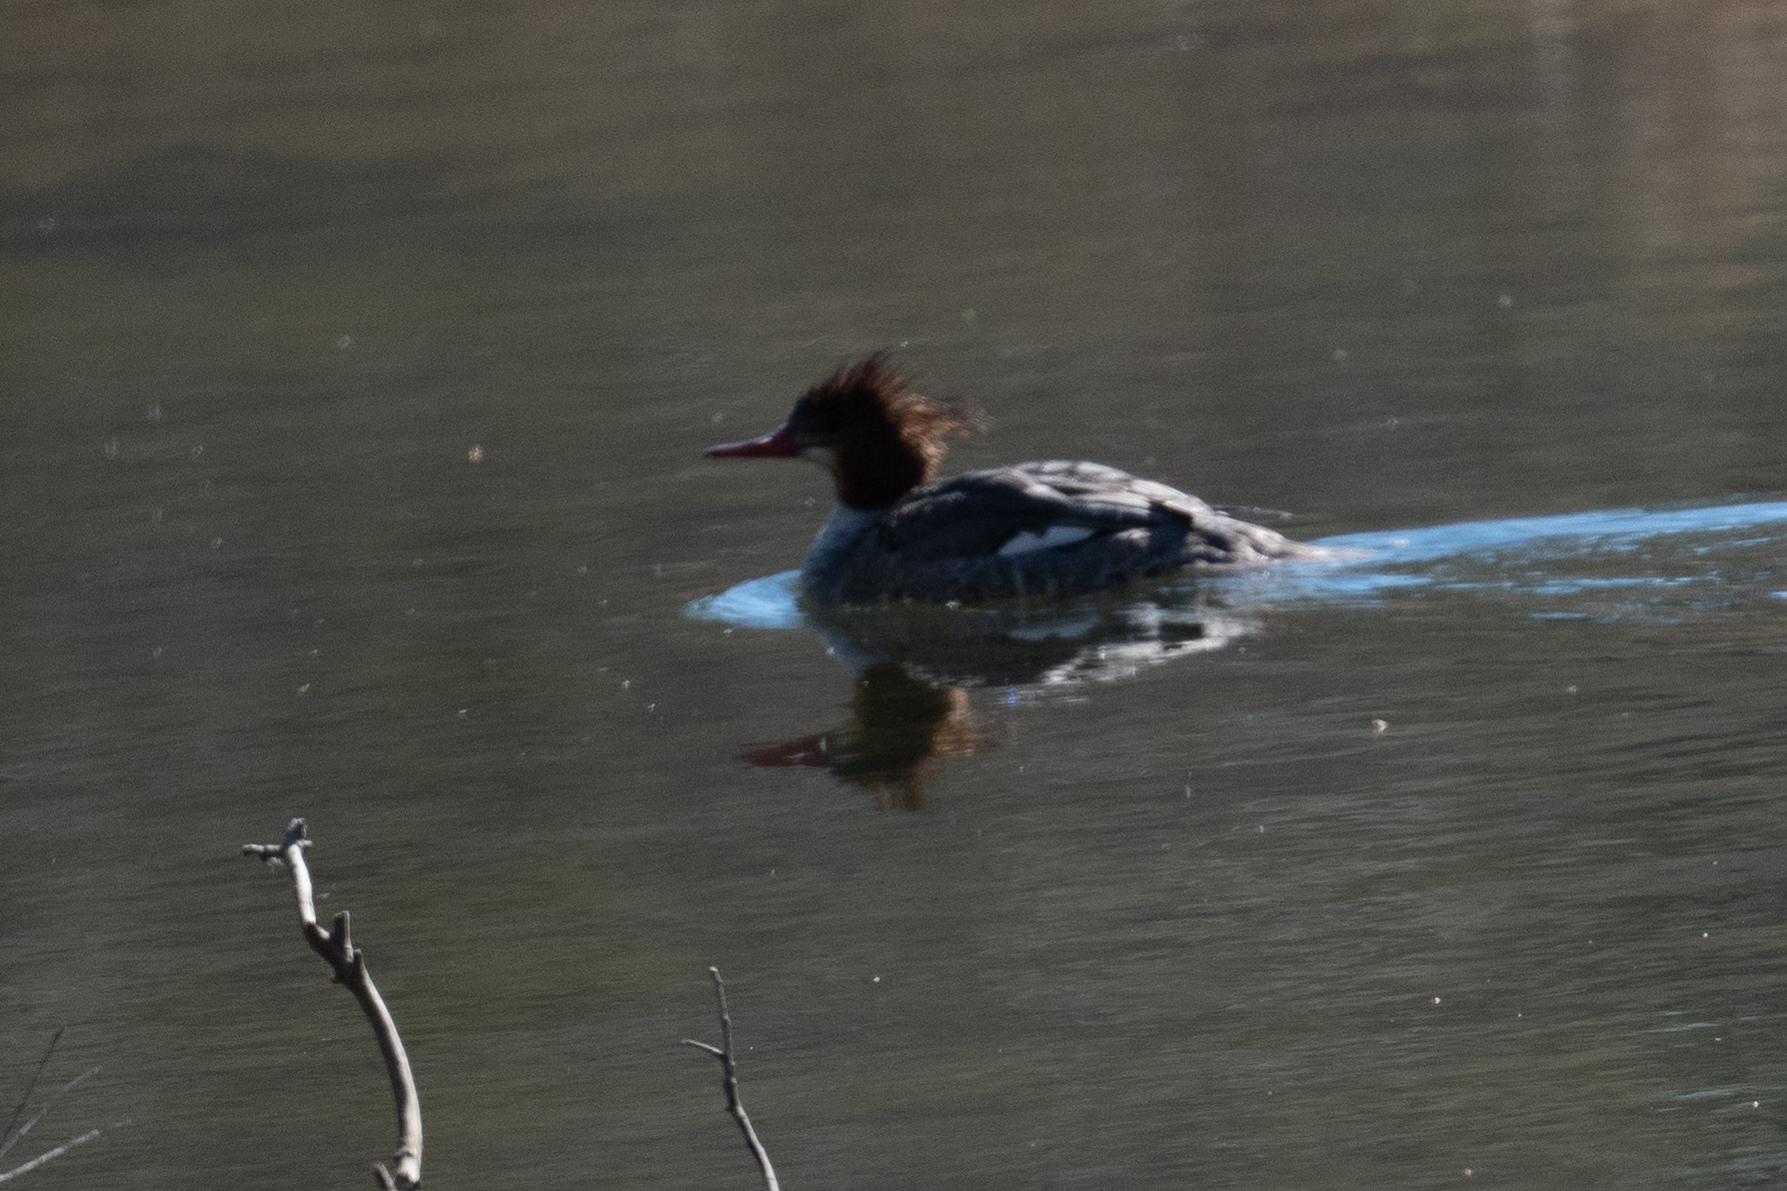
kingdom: Animalia
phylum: Chordata
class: Aves
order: Anseriformes
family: Anatidae
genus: Mergus
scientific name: Mergus merganser
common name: Common merganser
